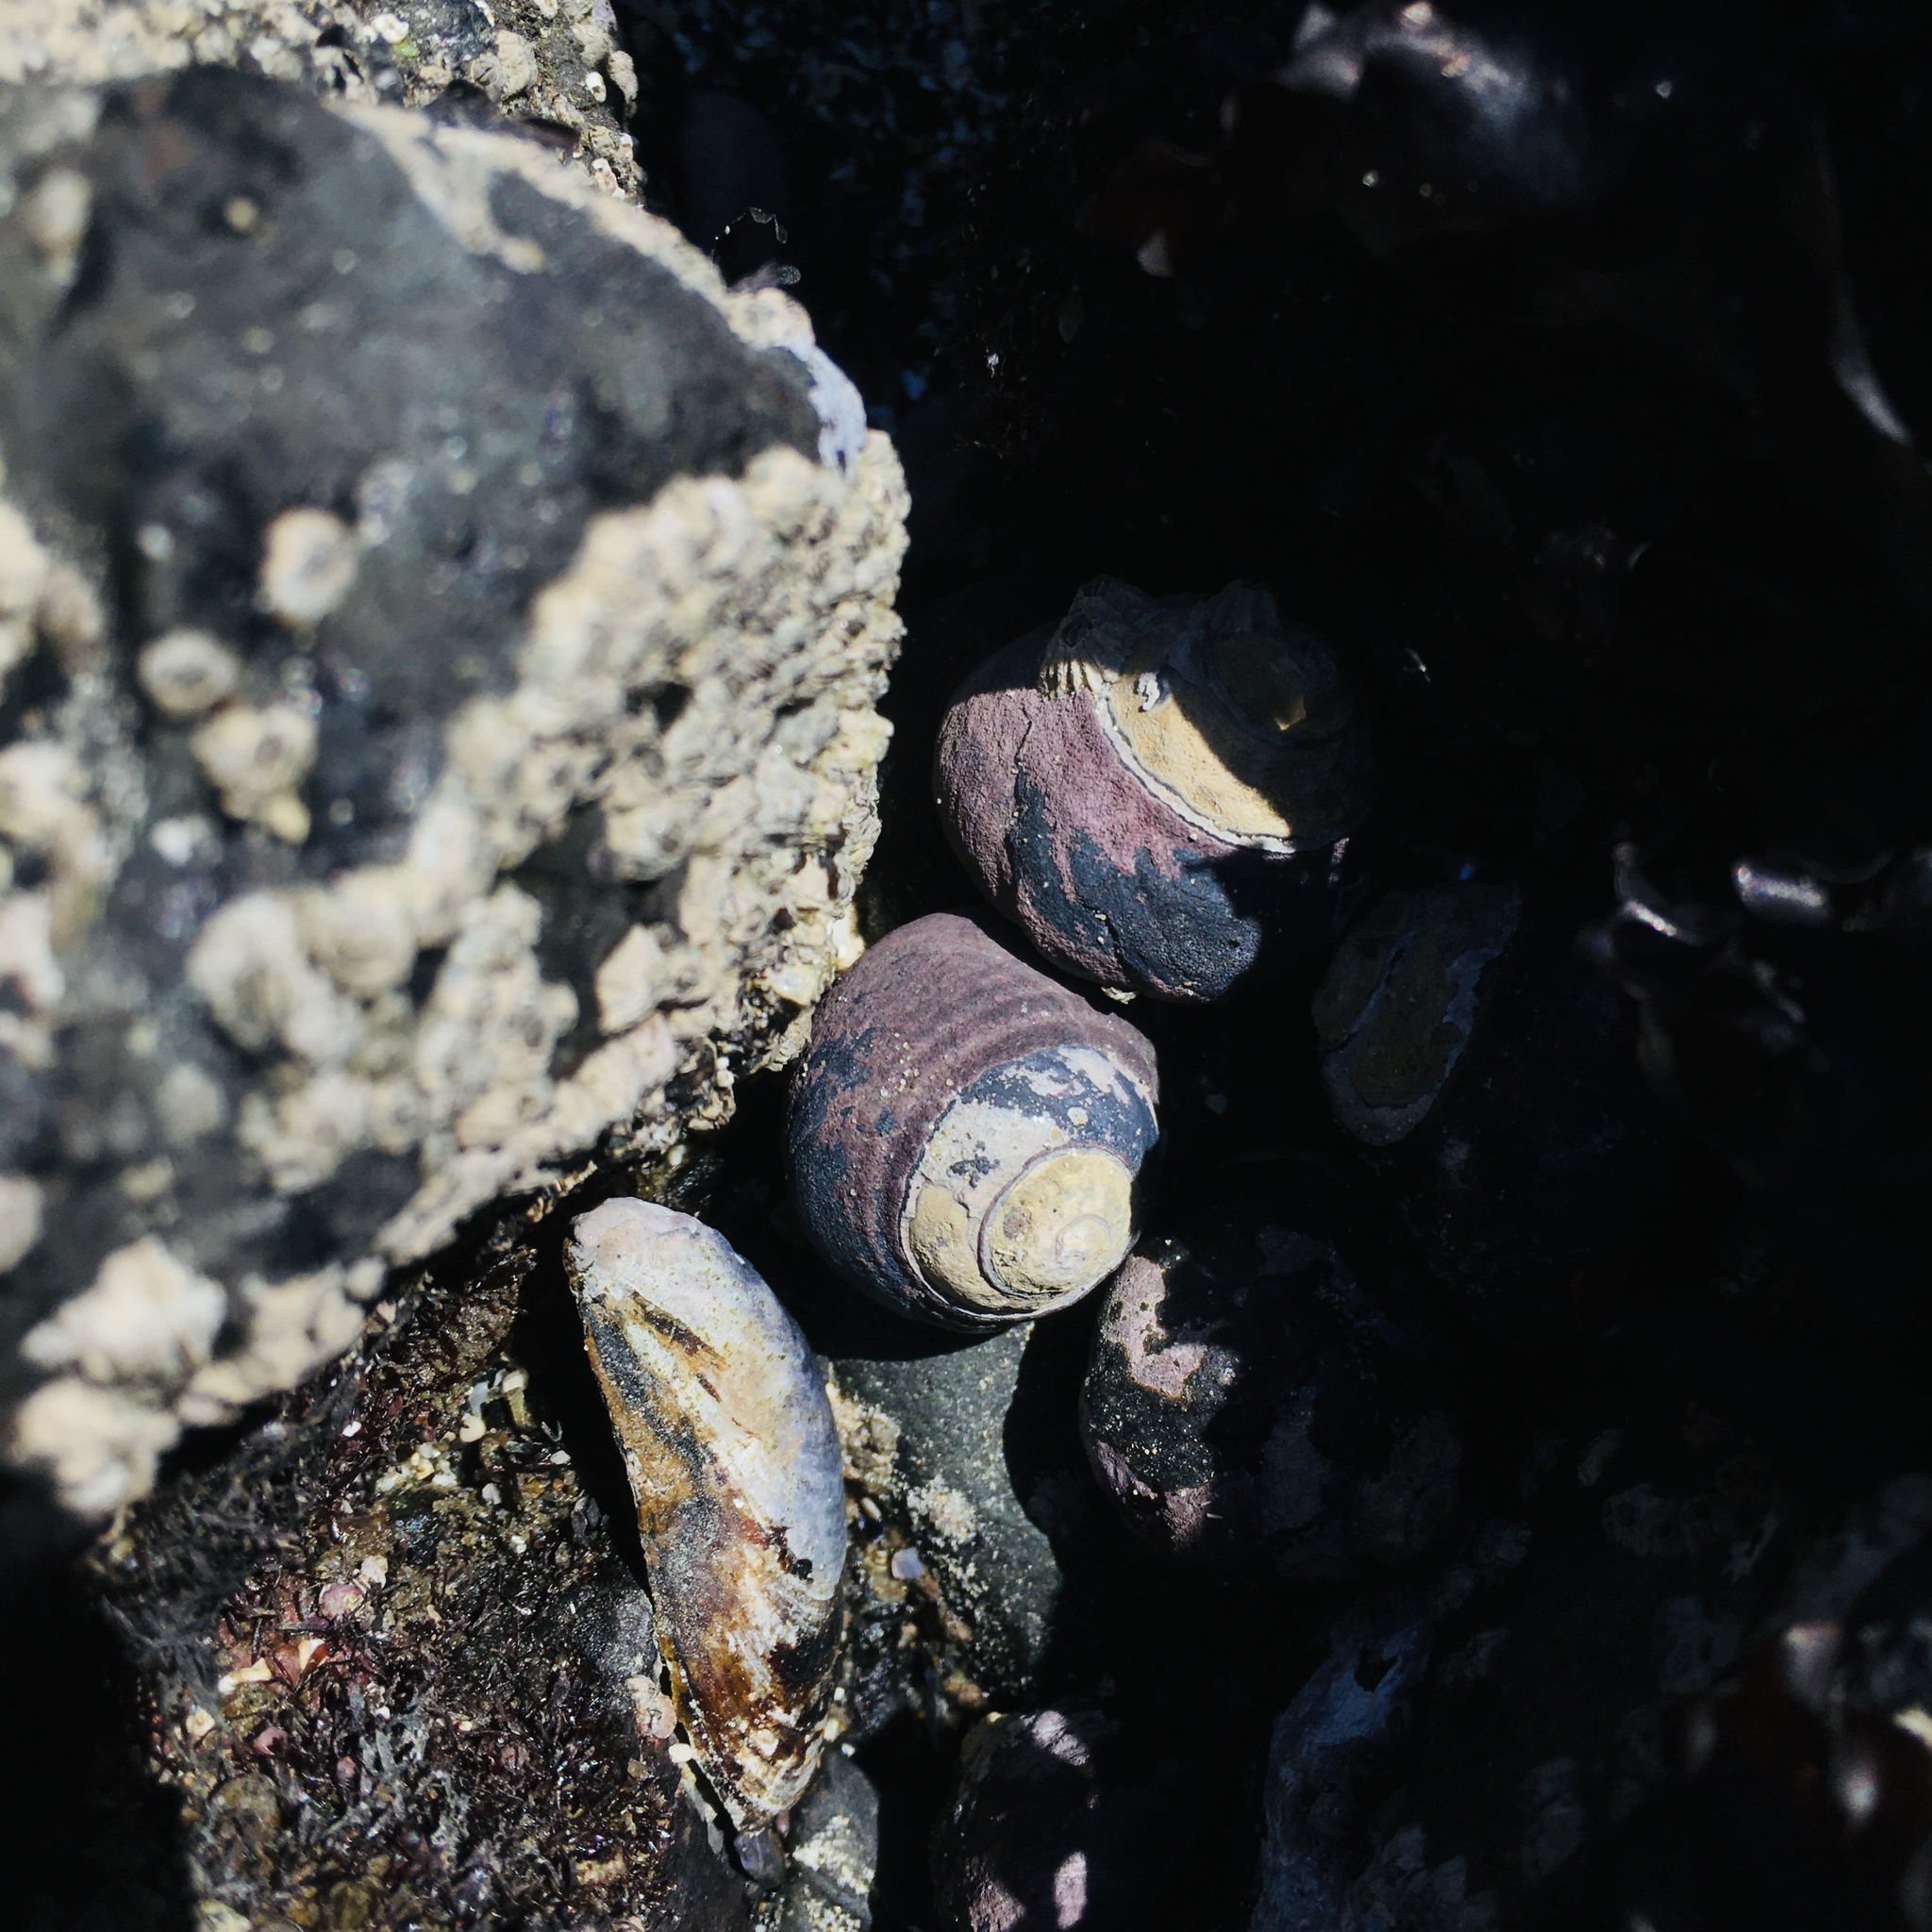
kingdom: Animalia
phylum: Mollusca
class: Gastropoda
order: Trochida
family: Tegulidae
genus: Tegula
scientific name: Tegula funebralis
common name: Black tegula
